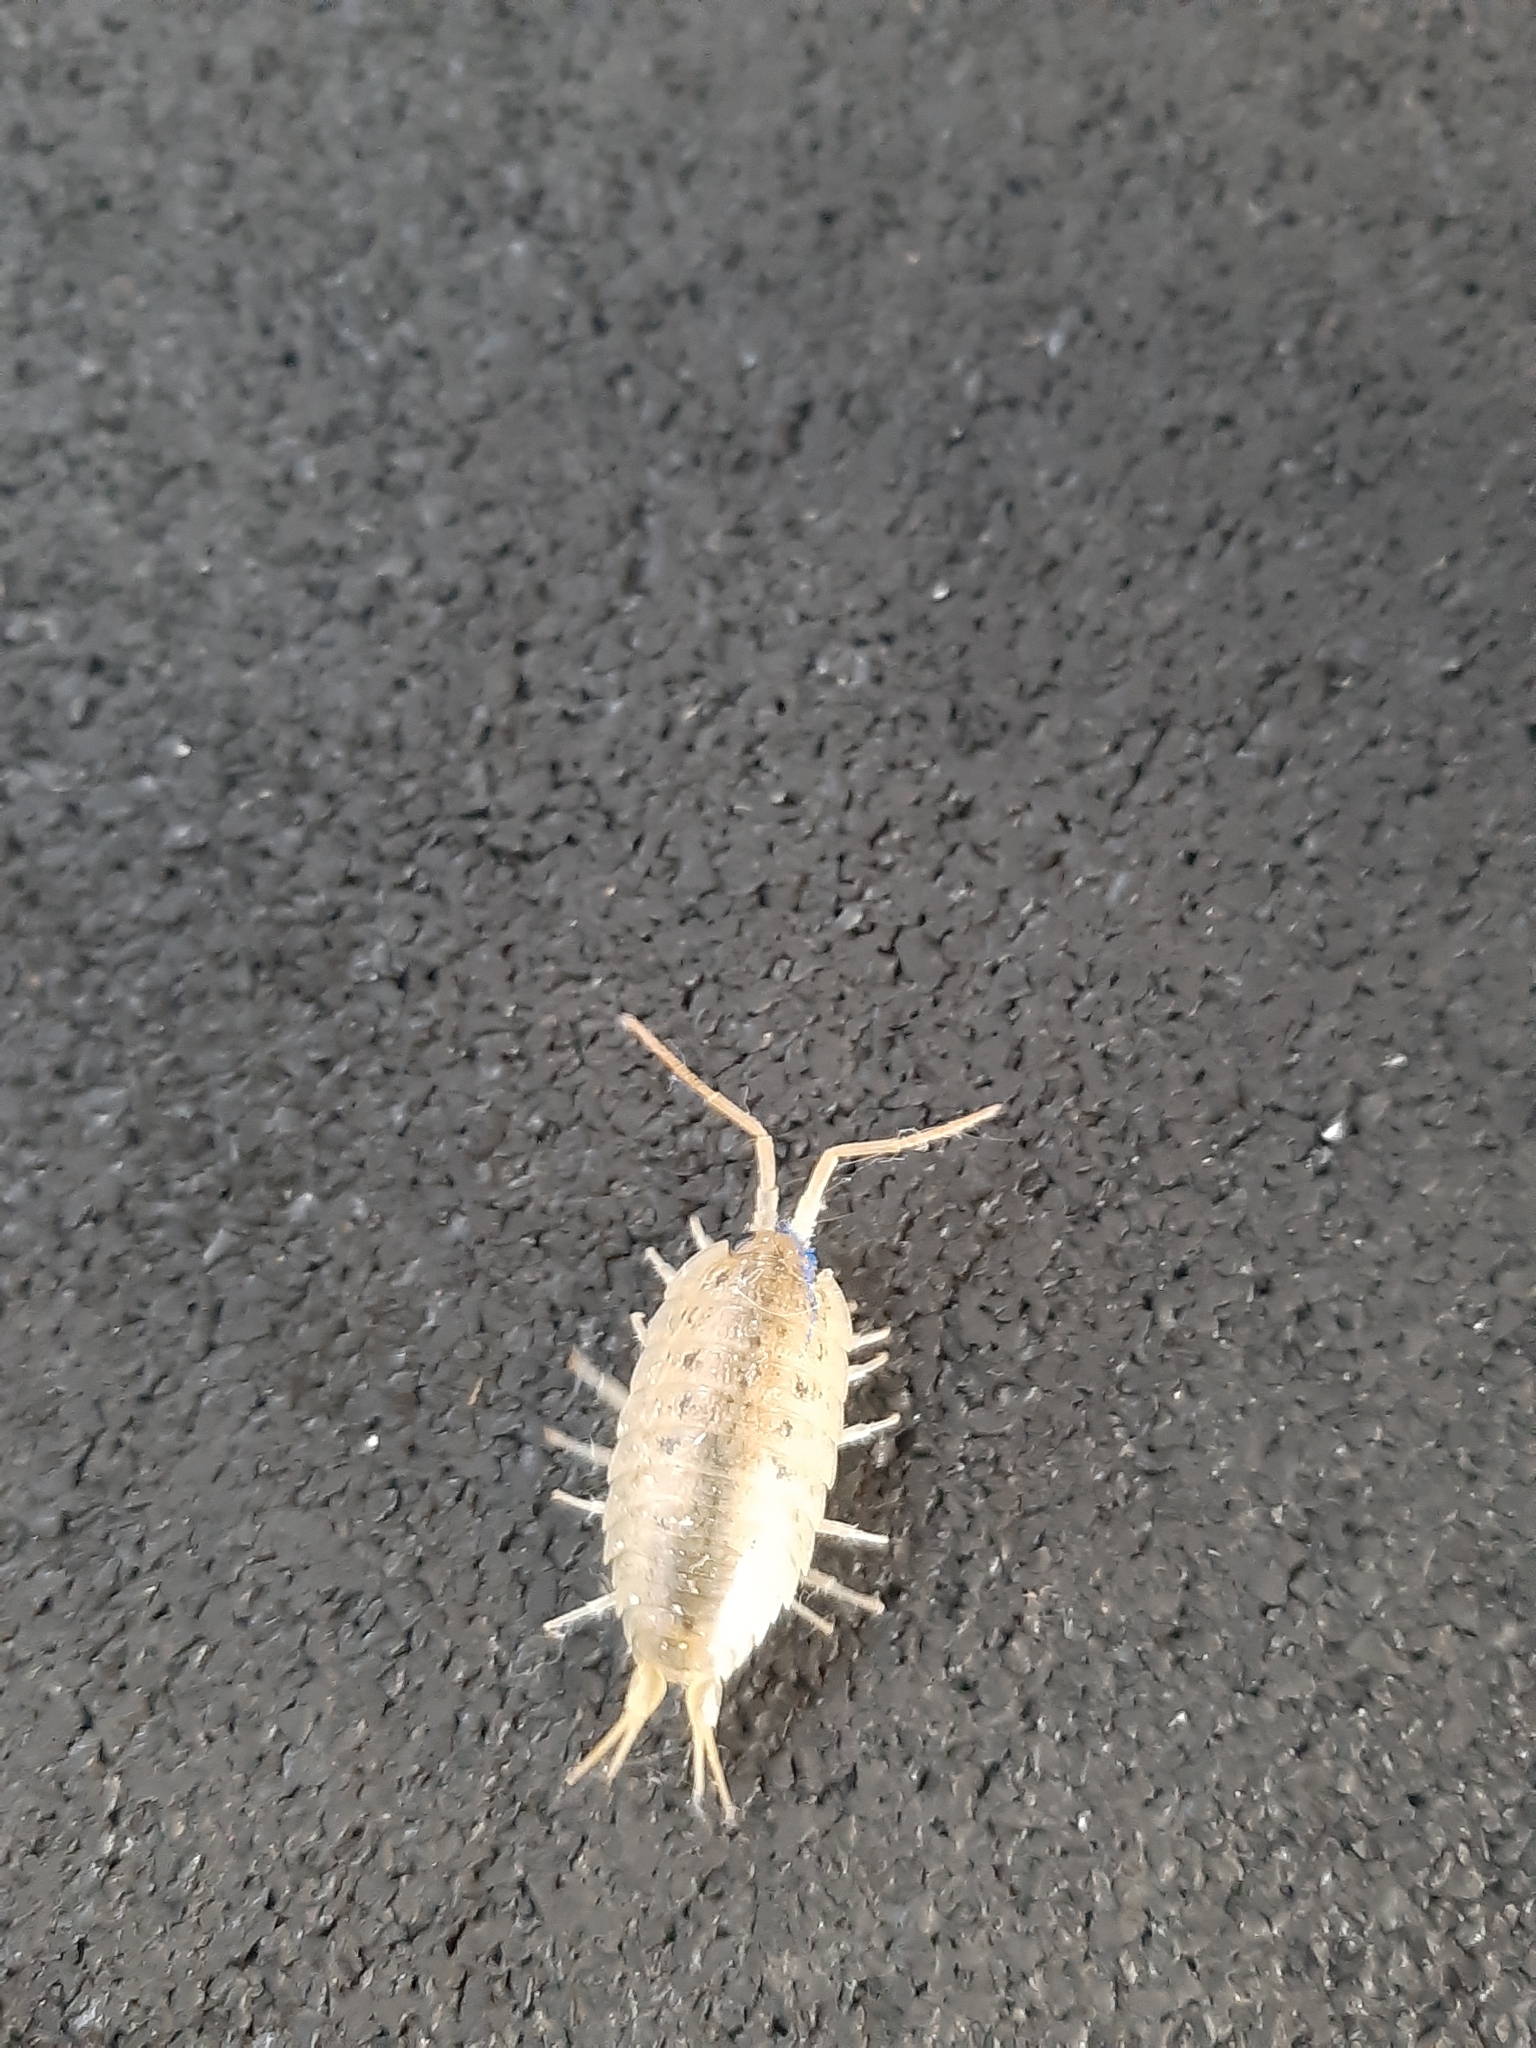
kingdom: Animalia
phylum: Arthropoda
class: Malacostraca
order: Isopoda
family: Ligiidae
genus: Ligia
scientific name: Ligia oceanica
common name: Sea slater
